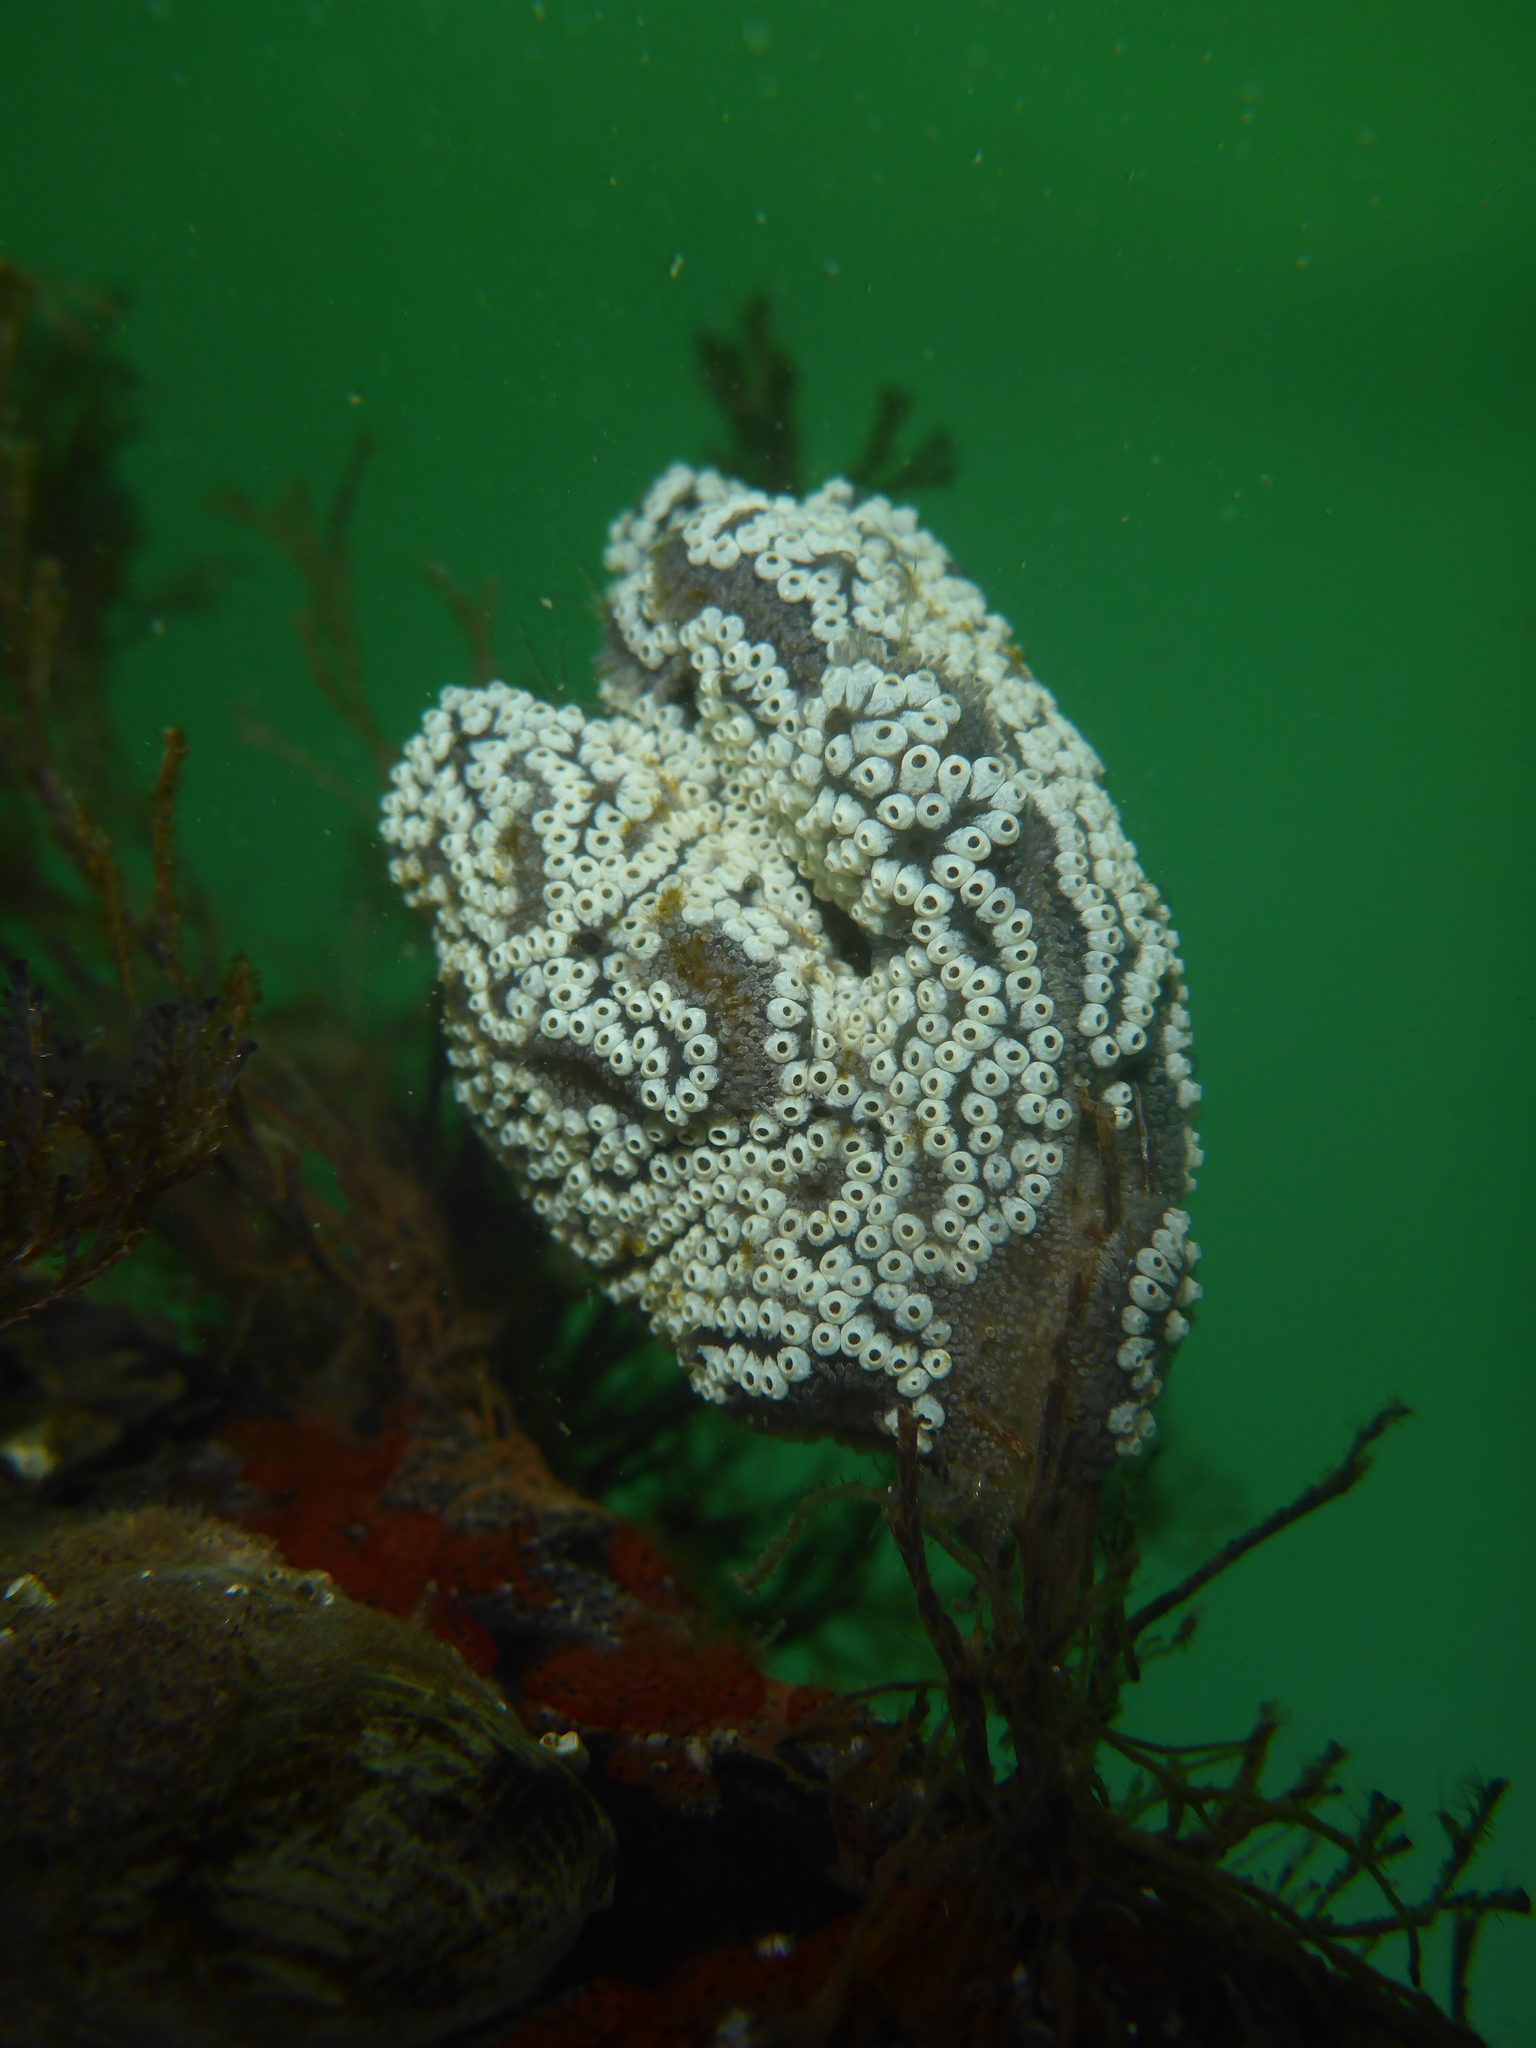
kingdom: Animalia
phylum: Chordata
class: Ascidiacea
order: Stolidobranchia
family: Styelidae
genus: Botrylloides
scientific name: Botrylloides diegensis
